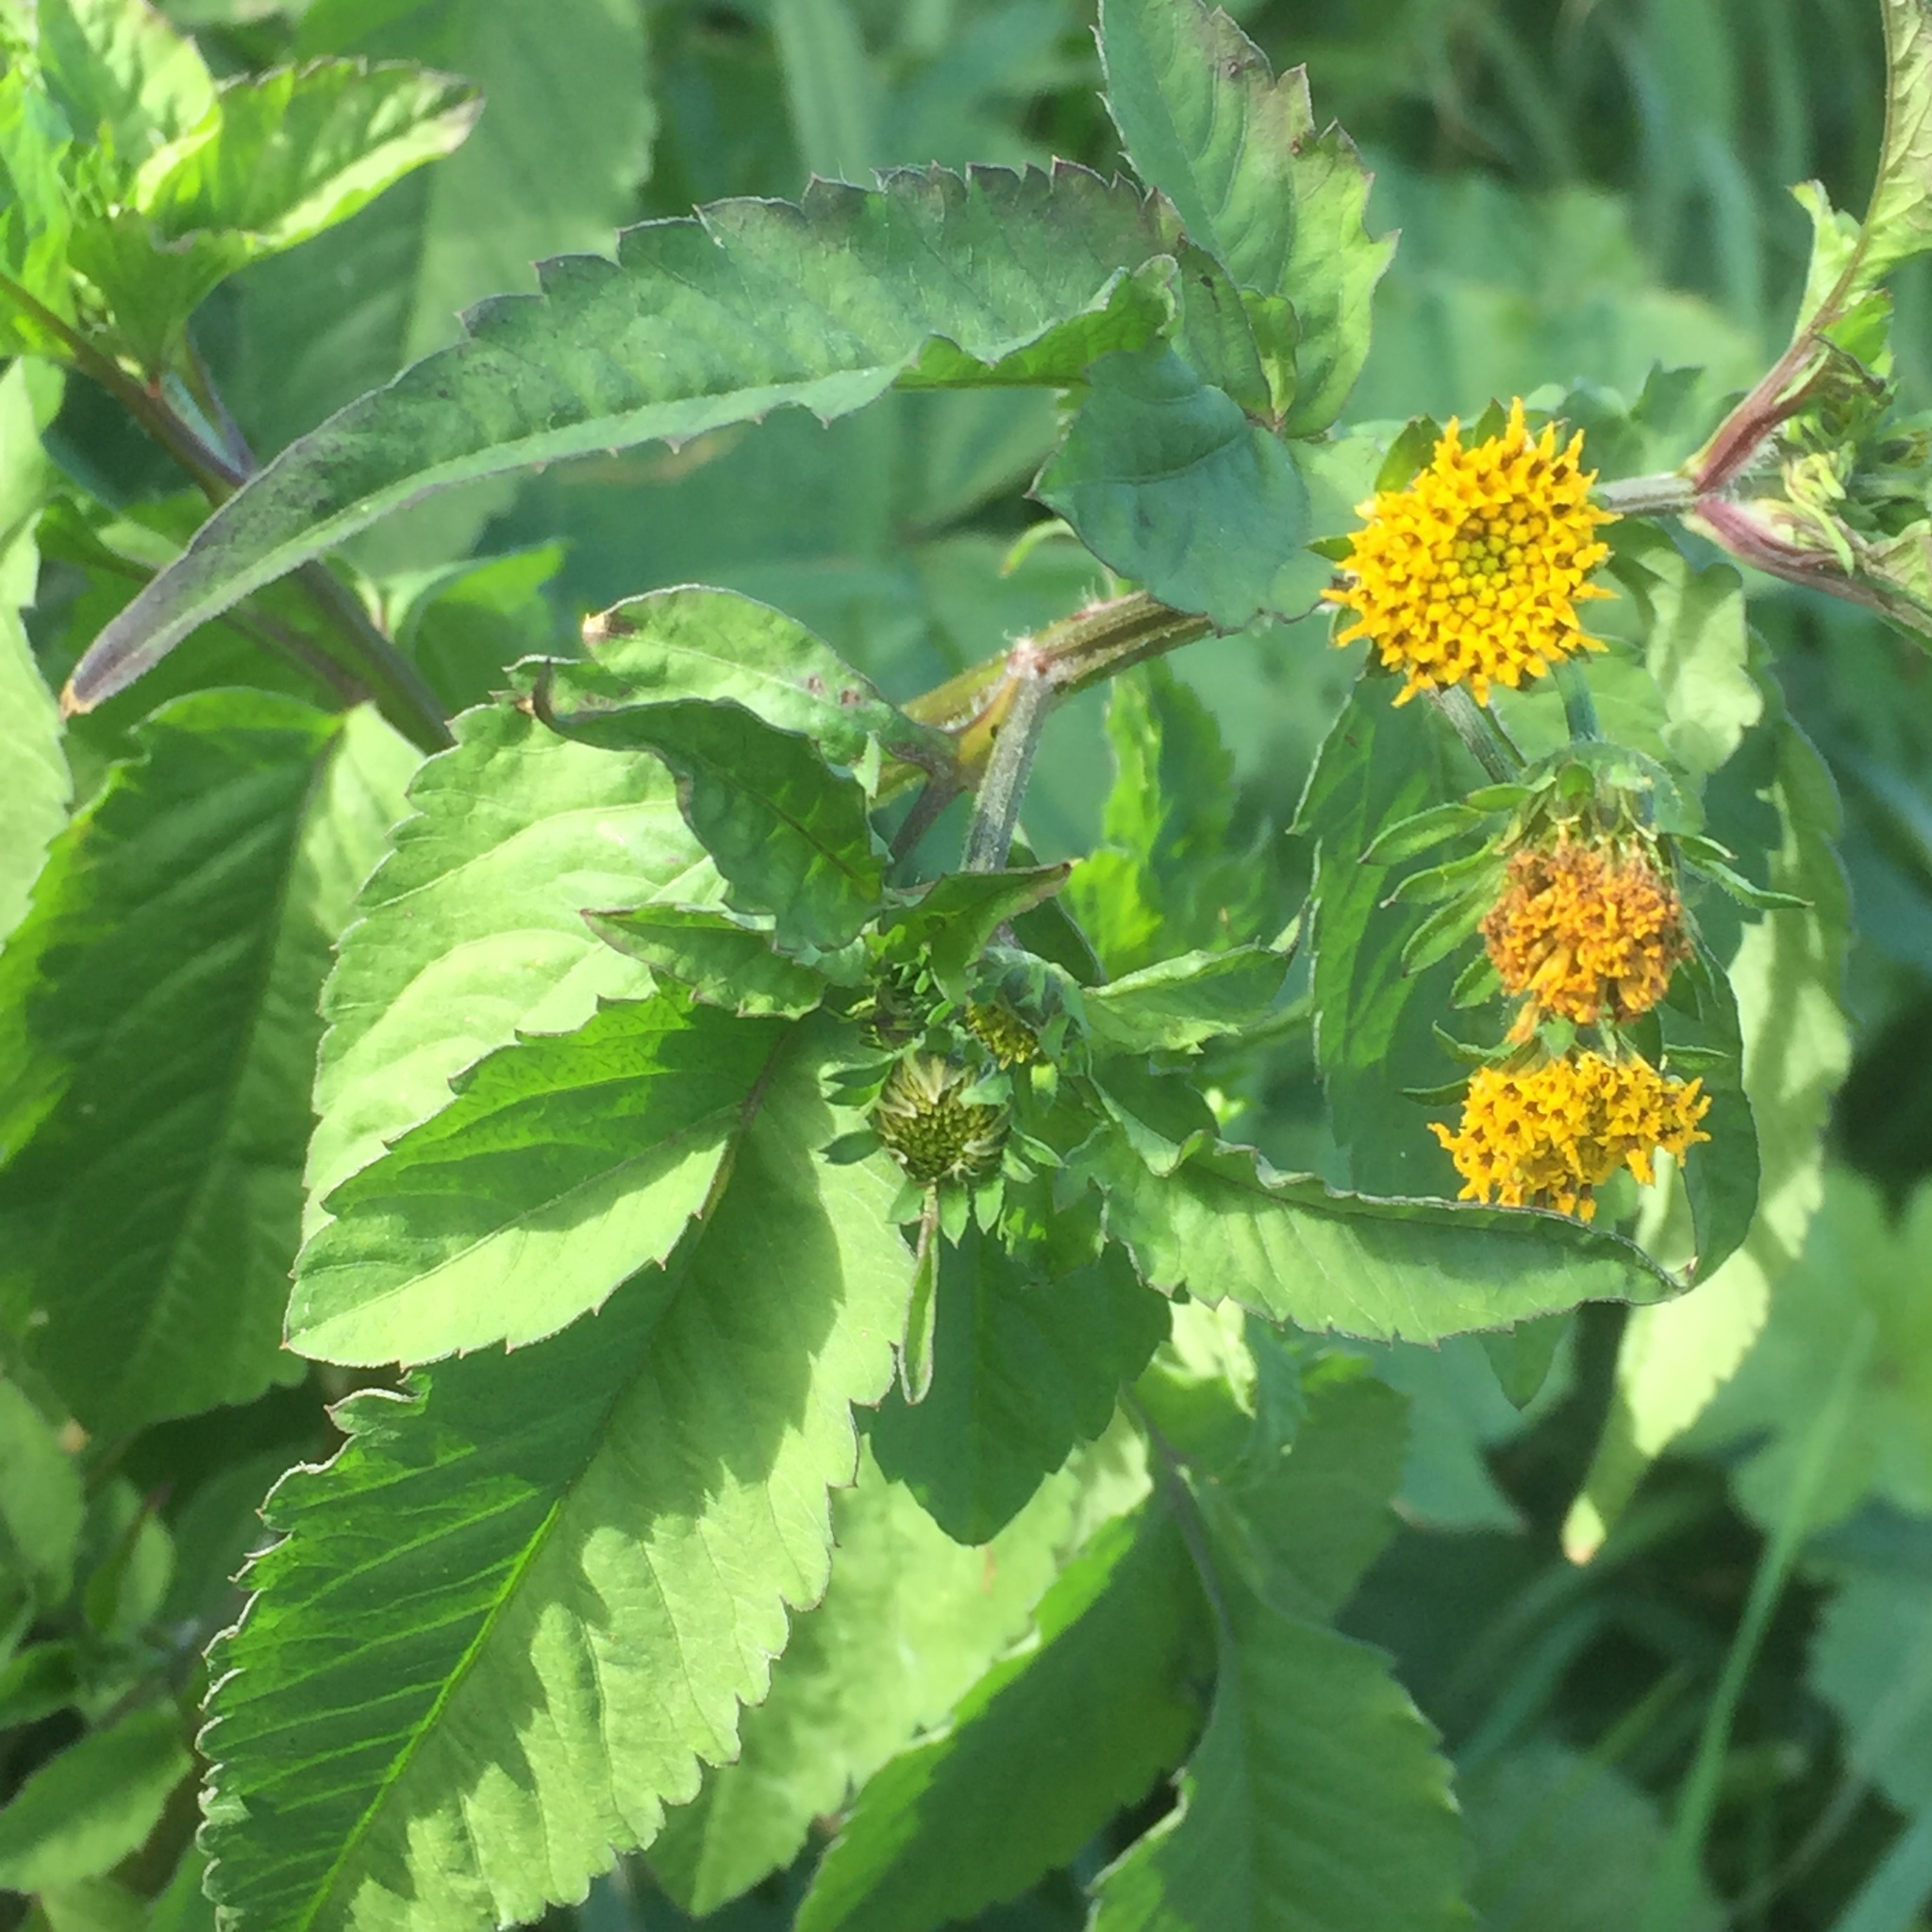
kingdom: Plantae
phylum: Tracheophyta
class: Magnoliopsida
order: Asterales
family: Asteraceae
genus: Bidens
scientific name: Bidens pilosa
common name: Black-jack
